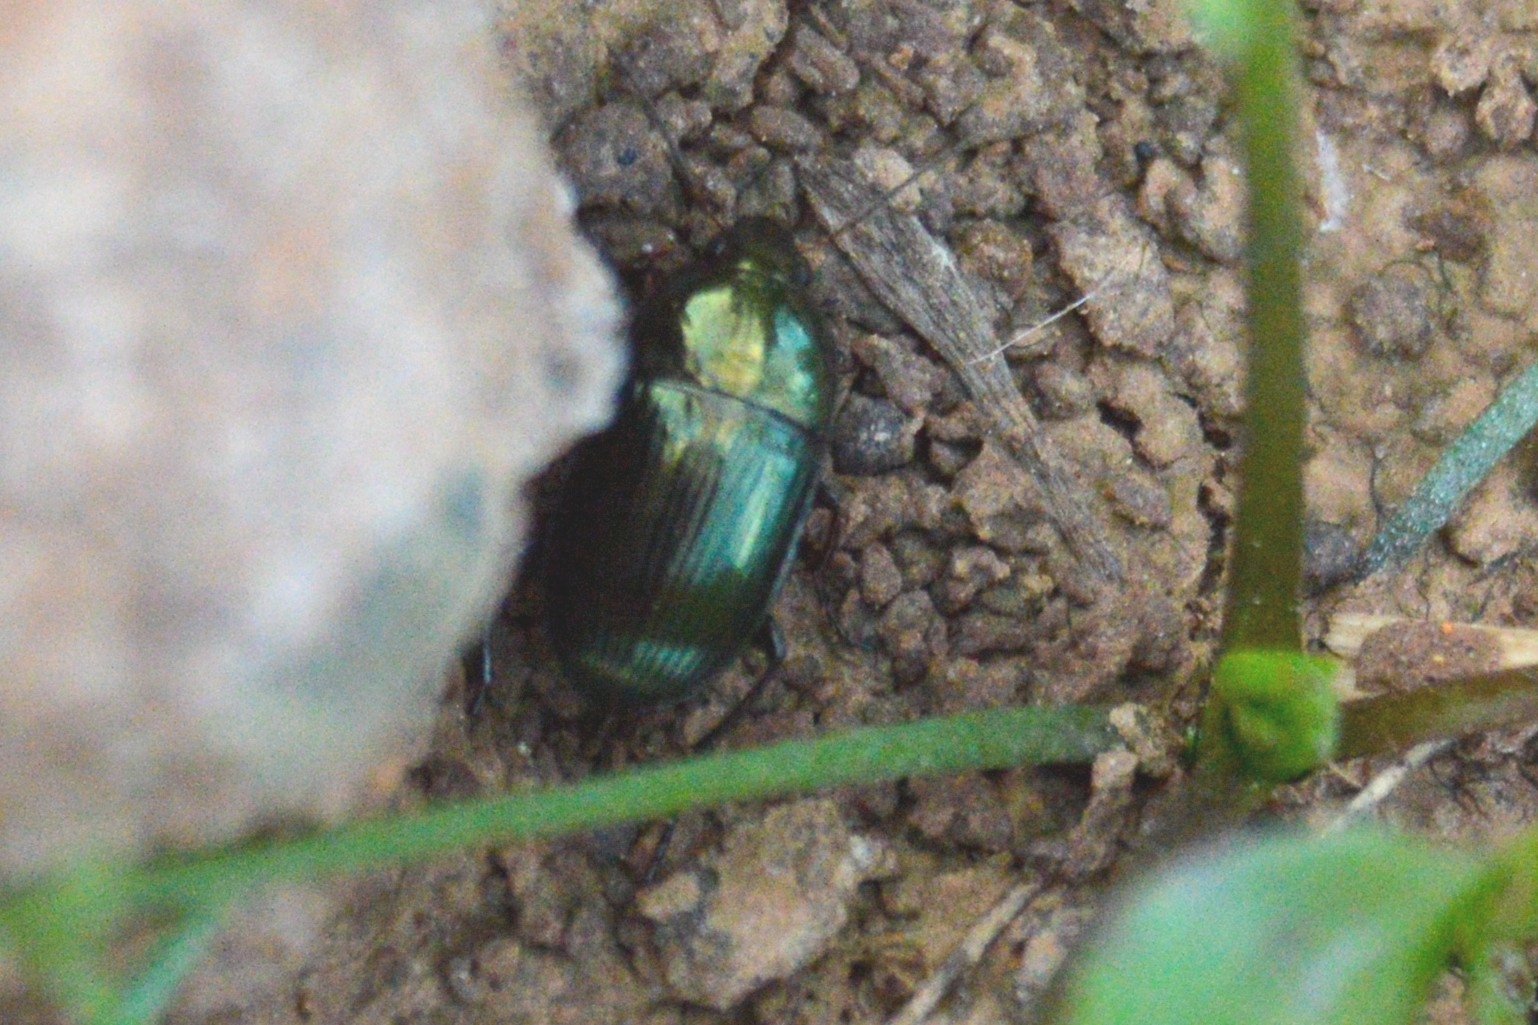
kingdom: Animalia
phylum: Arthropoda
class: Insecta
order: Coleoptera
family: Carabidae
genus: Amara
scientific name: Amara montivaga
